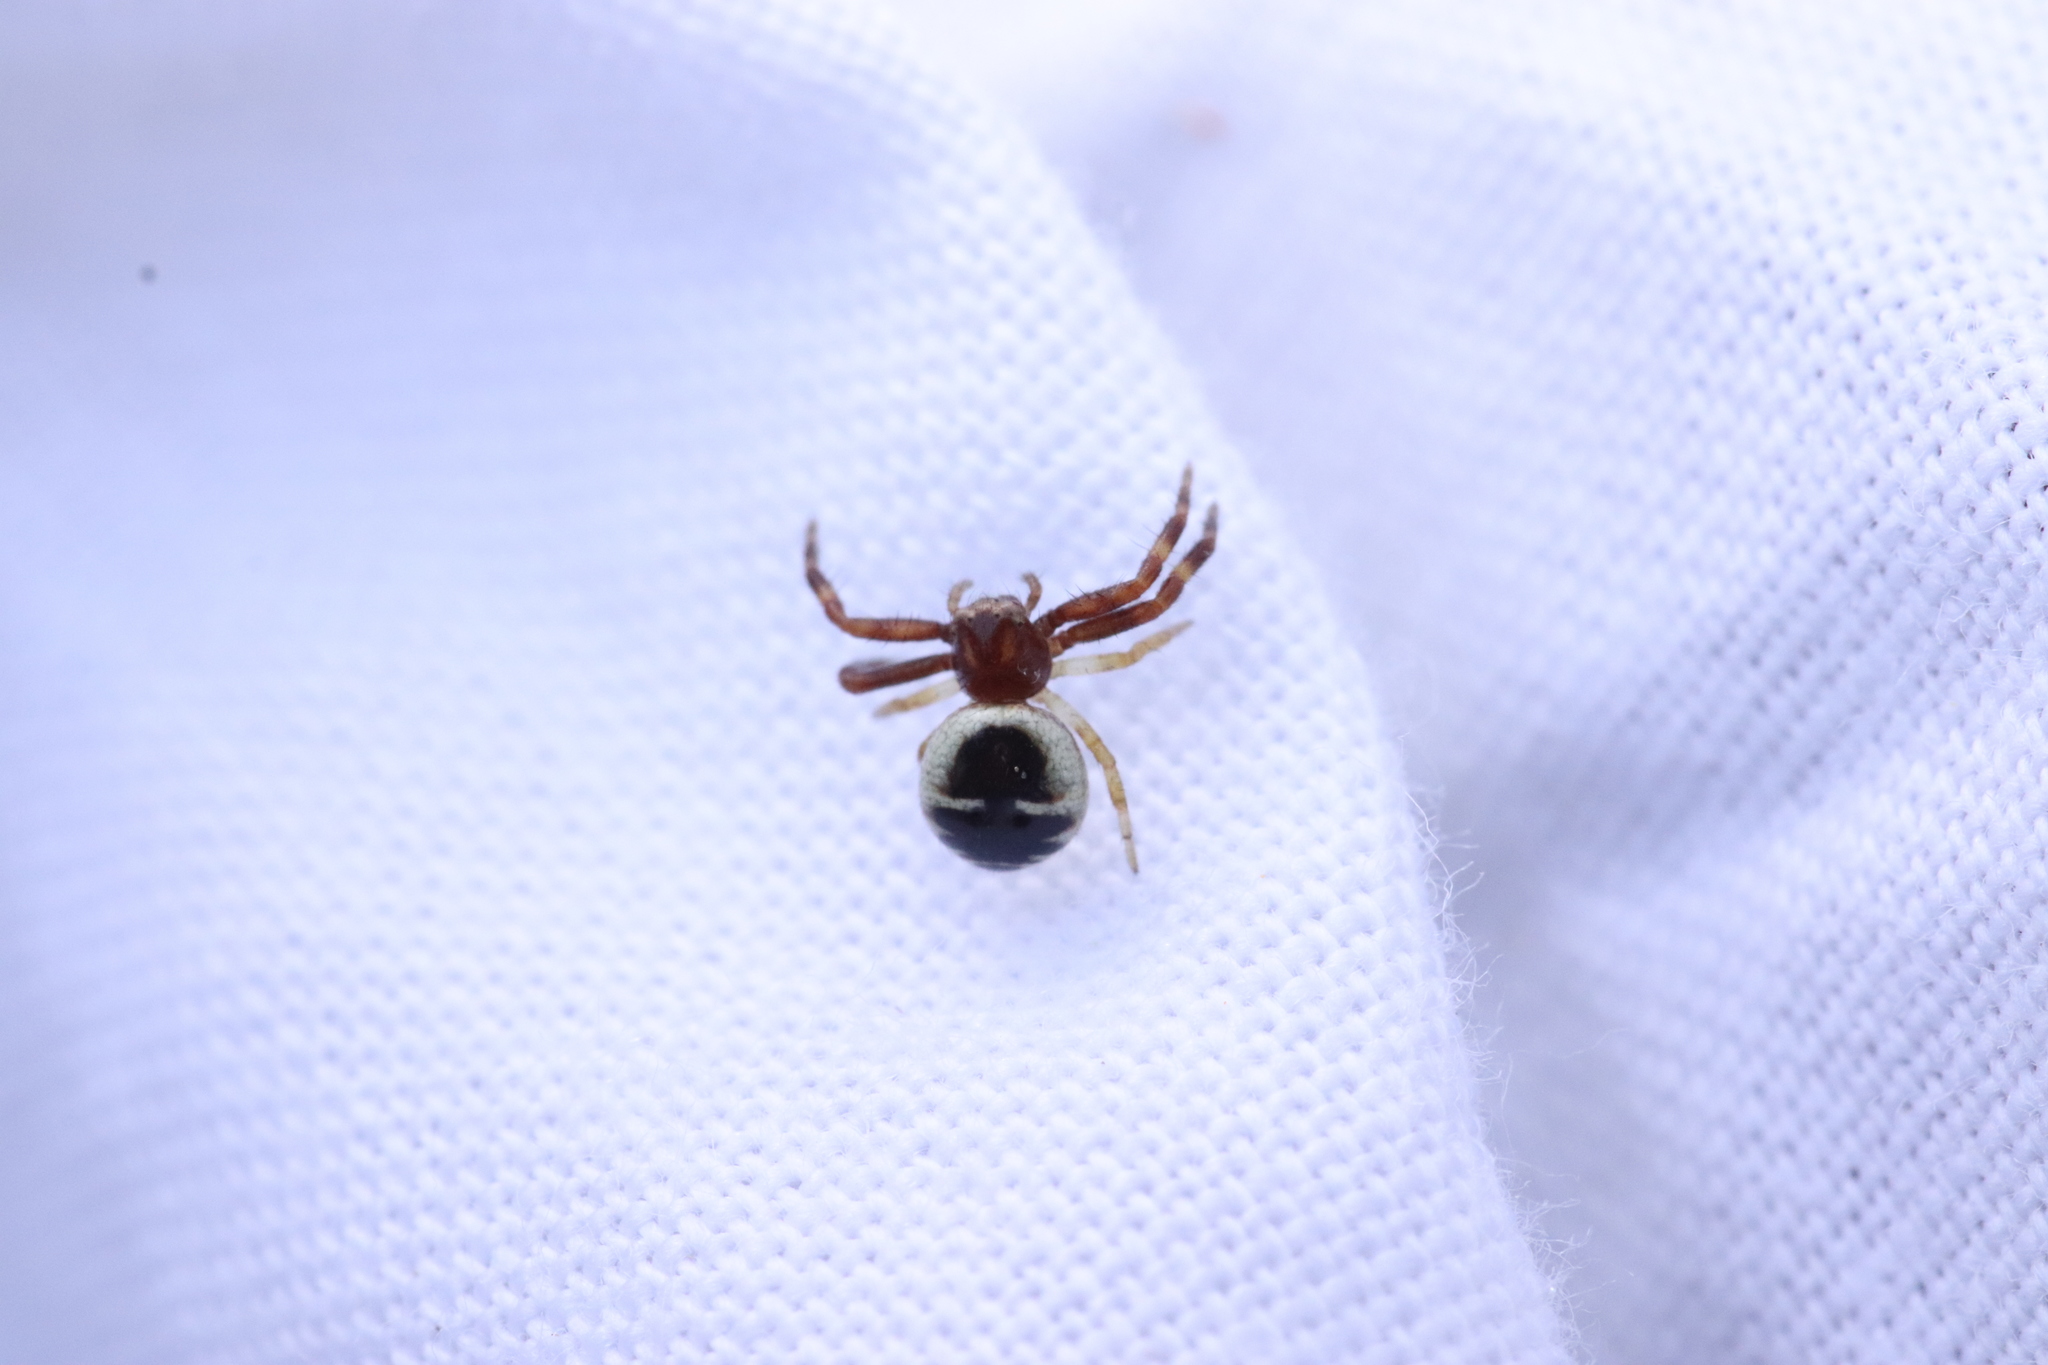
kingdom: Animalia
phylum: Arthropoda
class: Arachnida
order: Araneae
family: Thomisidae
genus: Synema
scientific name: Synema globosum
